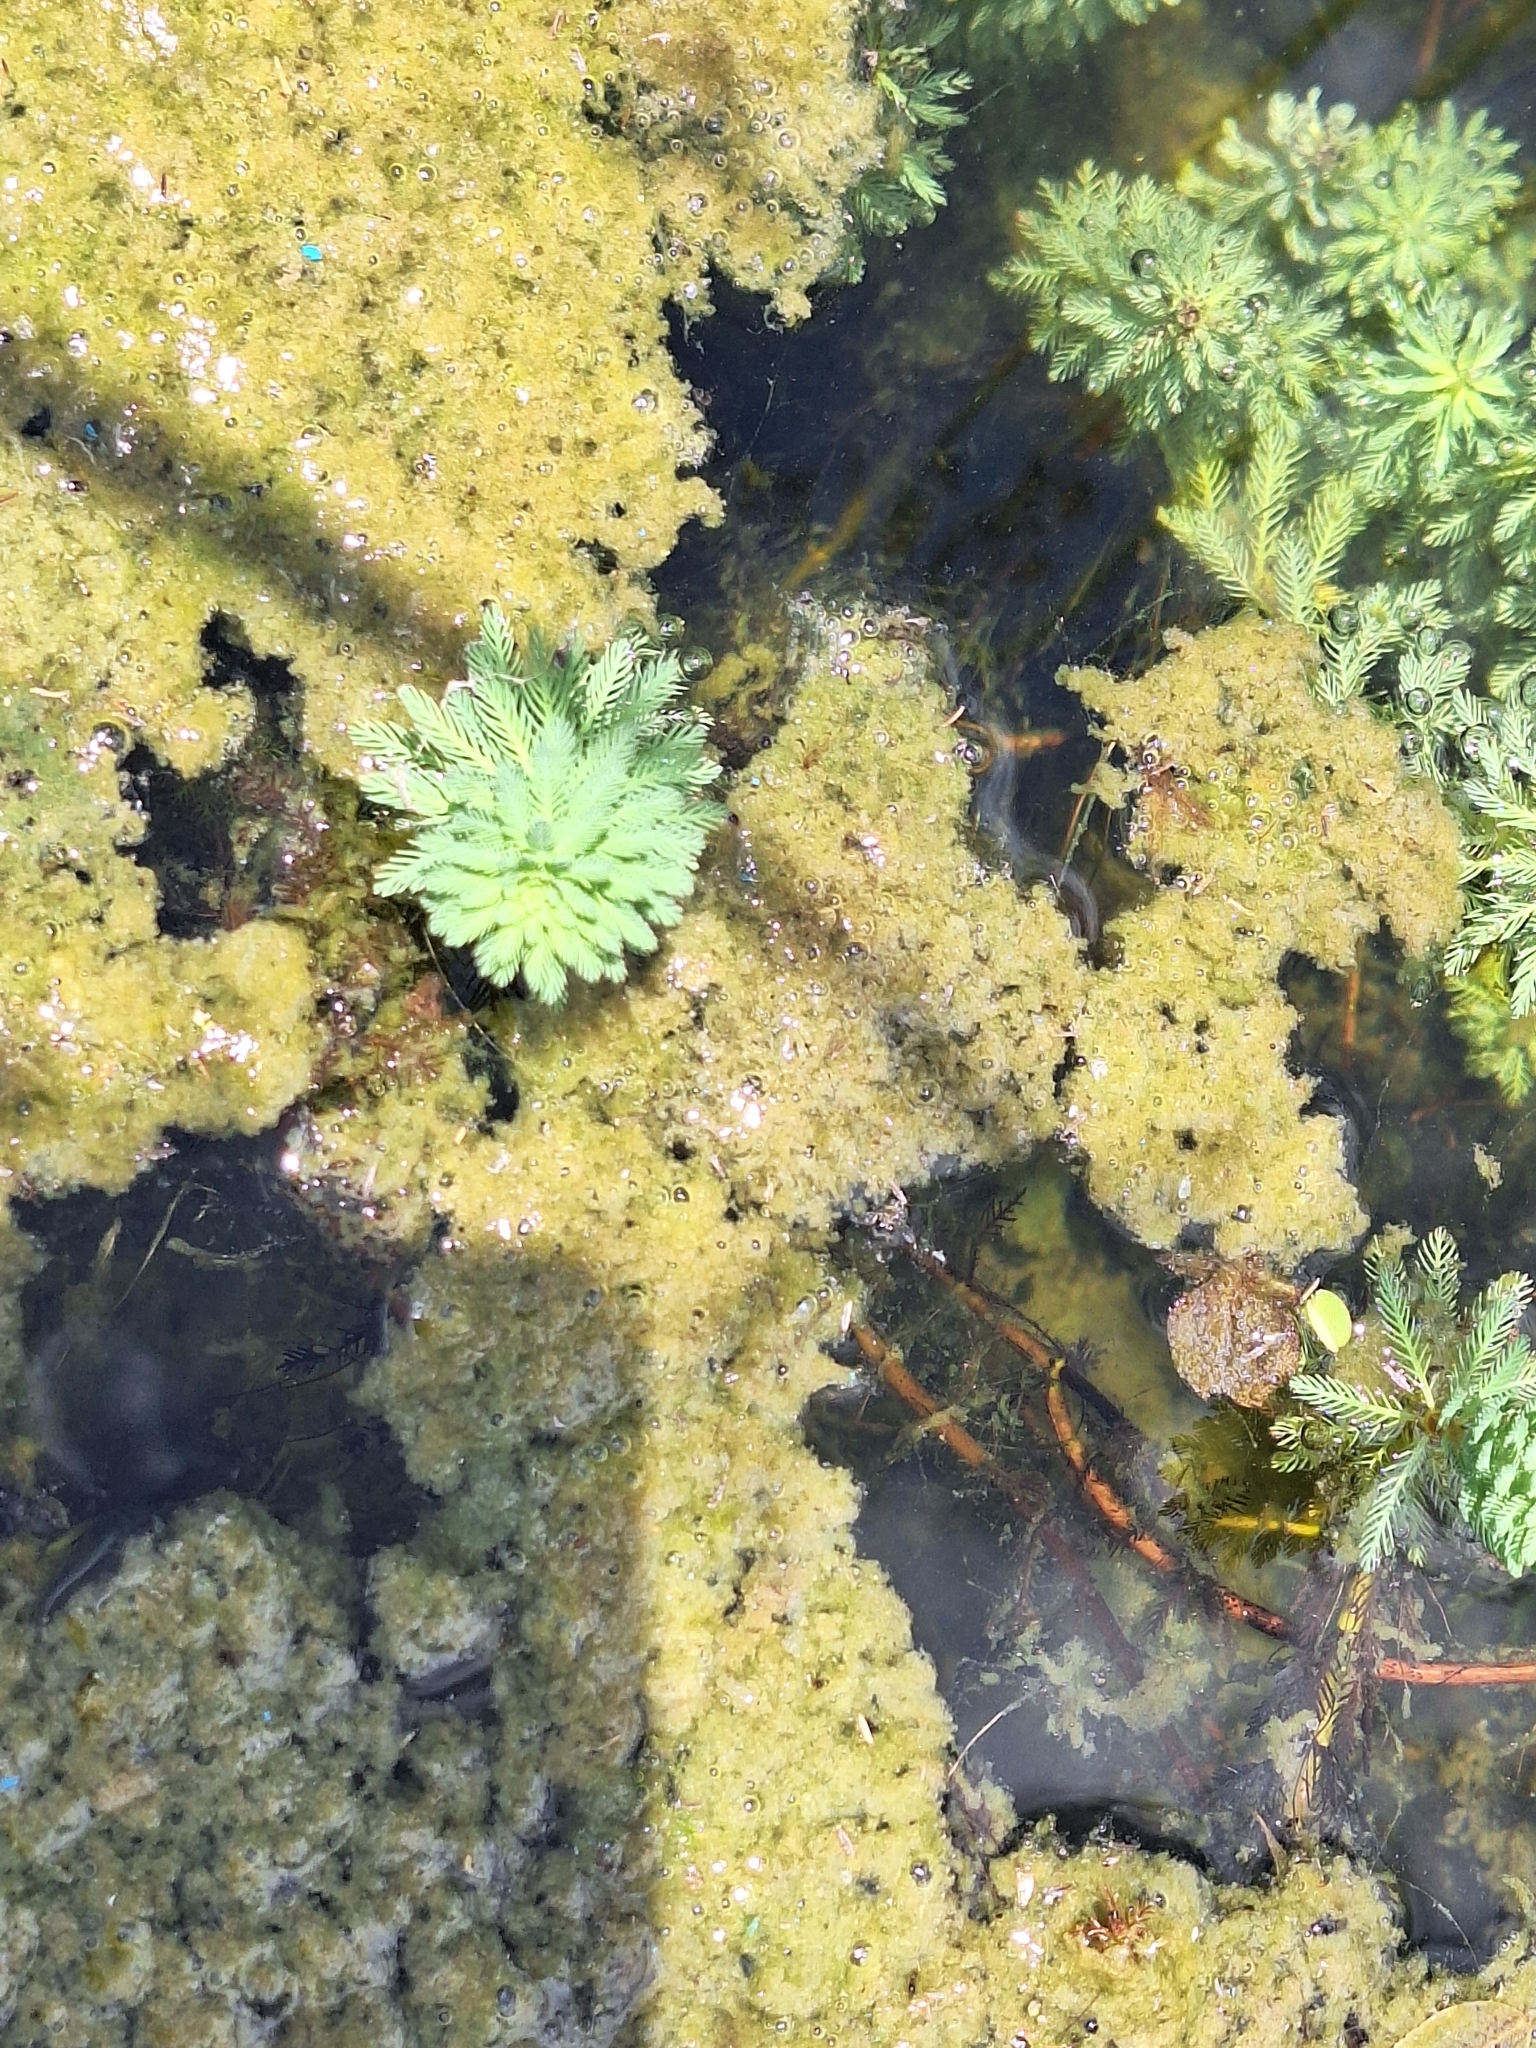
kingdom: Plantae
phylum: Tracheophyta
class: Magnoliopsida
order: Saxifragales
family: Haloragaceae
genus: Myriophyllum
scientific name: Myriophyllum aquaticum
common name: Parrot's feather
